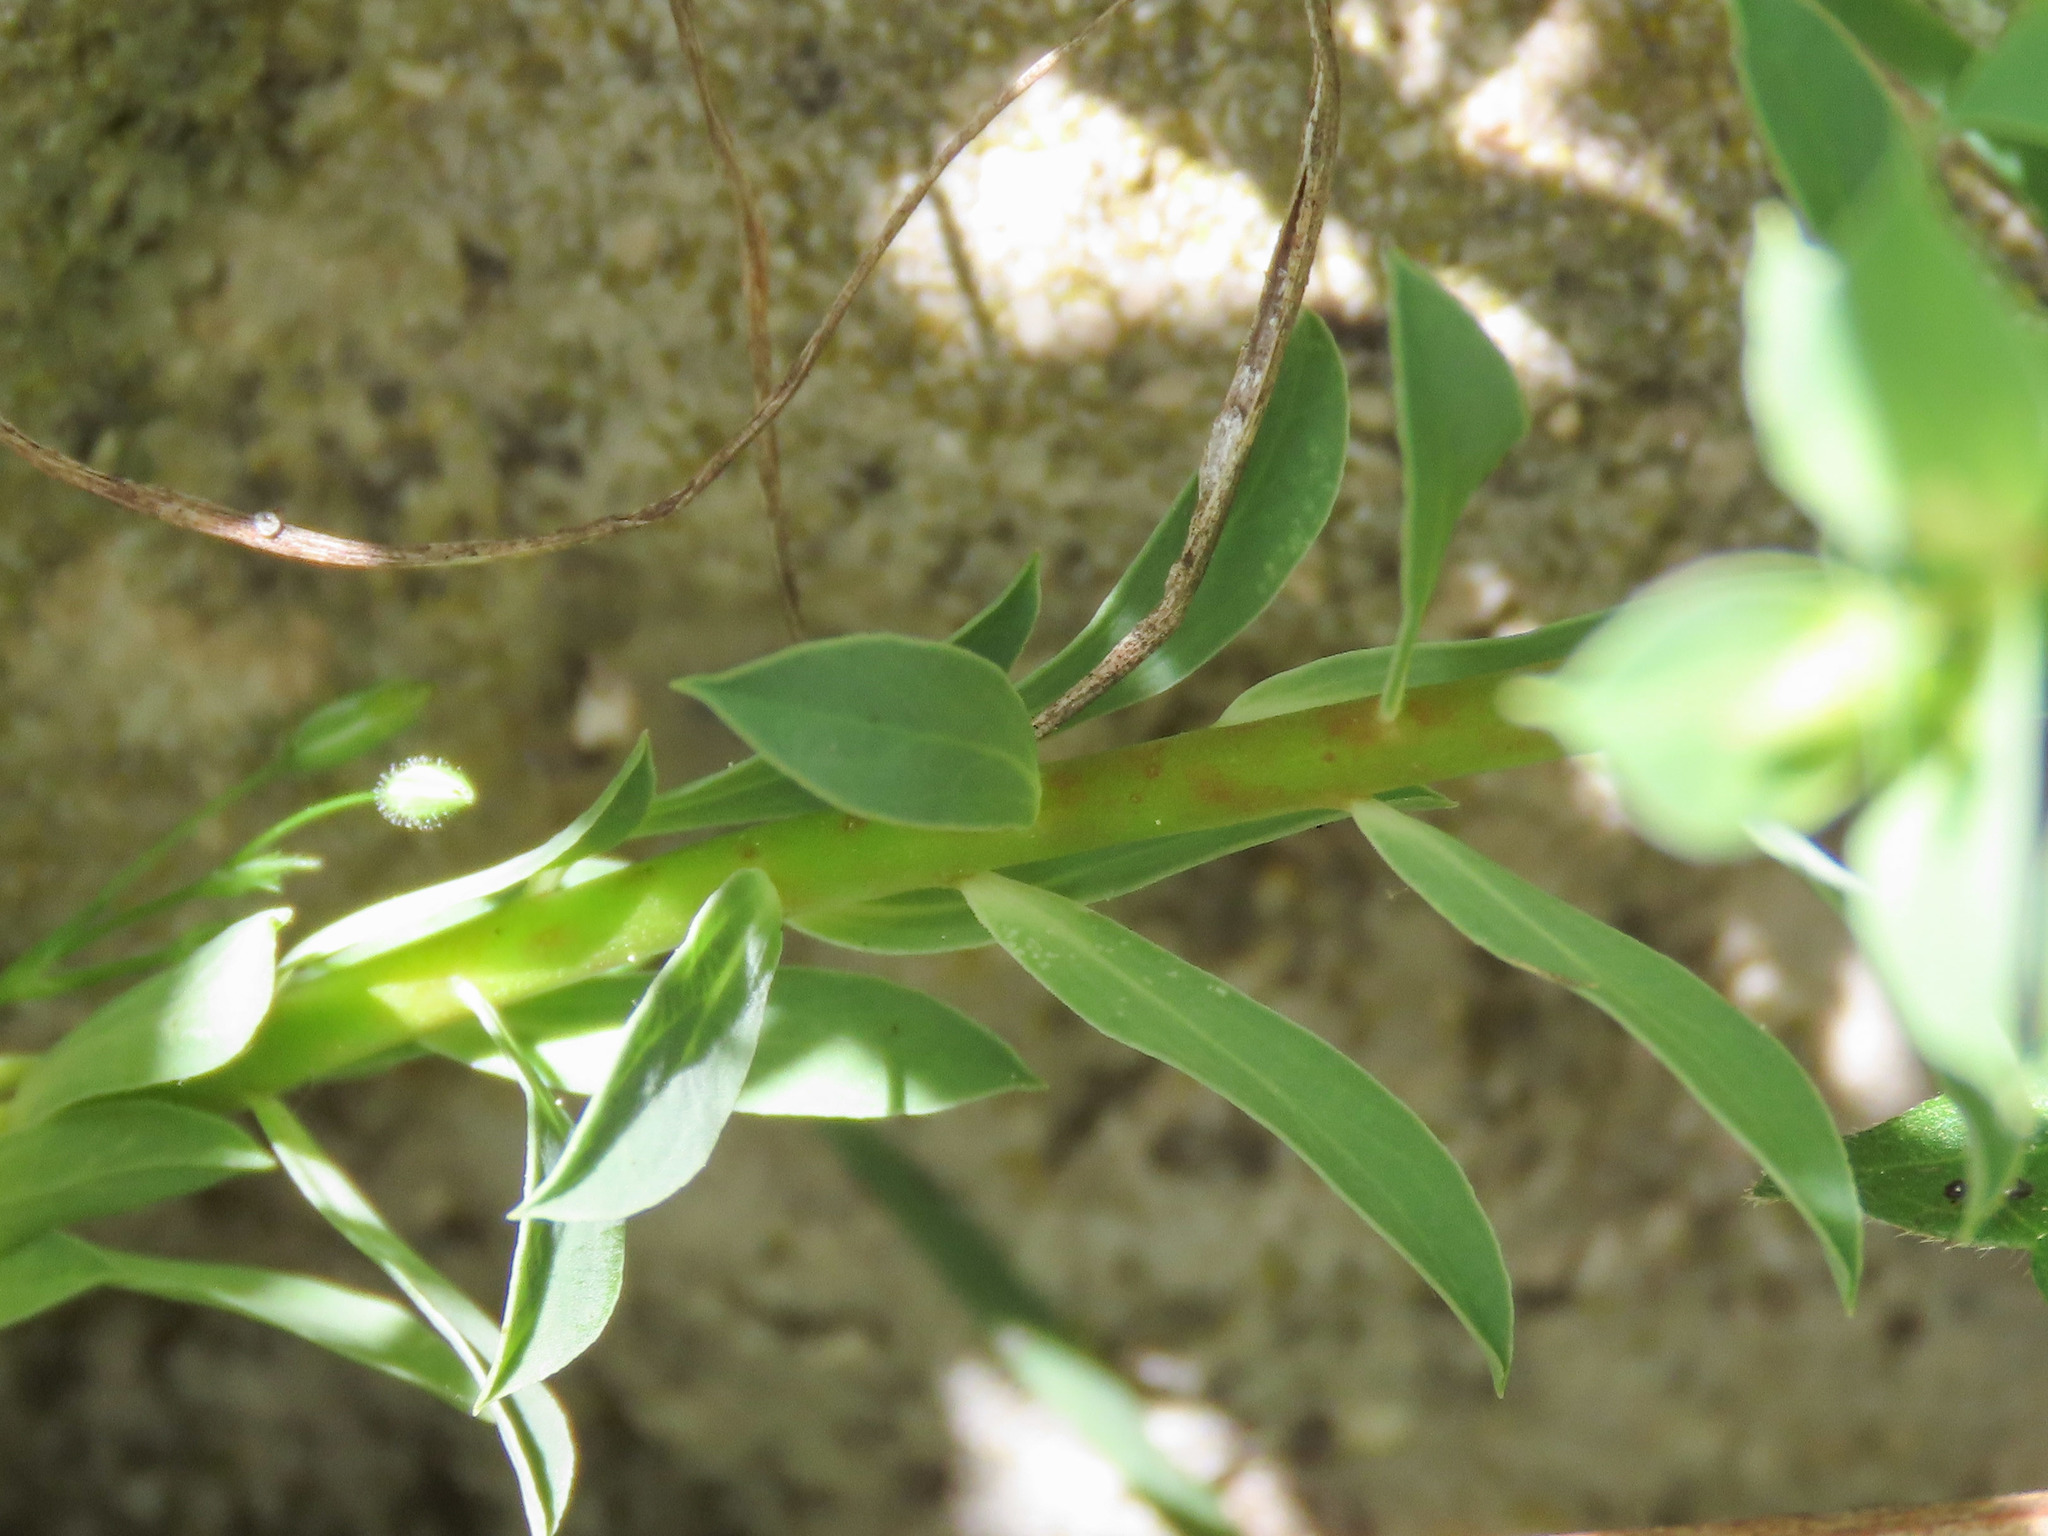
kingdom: Plantae
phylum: Tracheophyta
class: Magnoliopsida
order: Malpighiales
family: Euphorbiaceae
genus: Euphorbia
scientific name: Euphorbia falcata
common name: Sickle spurge
